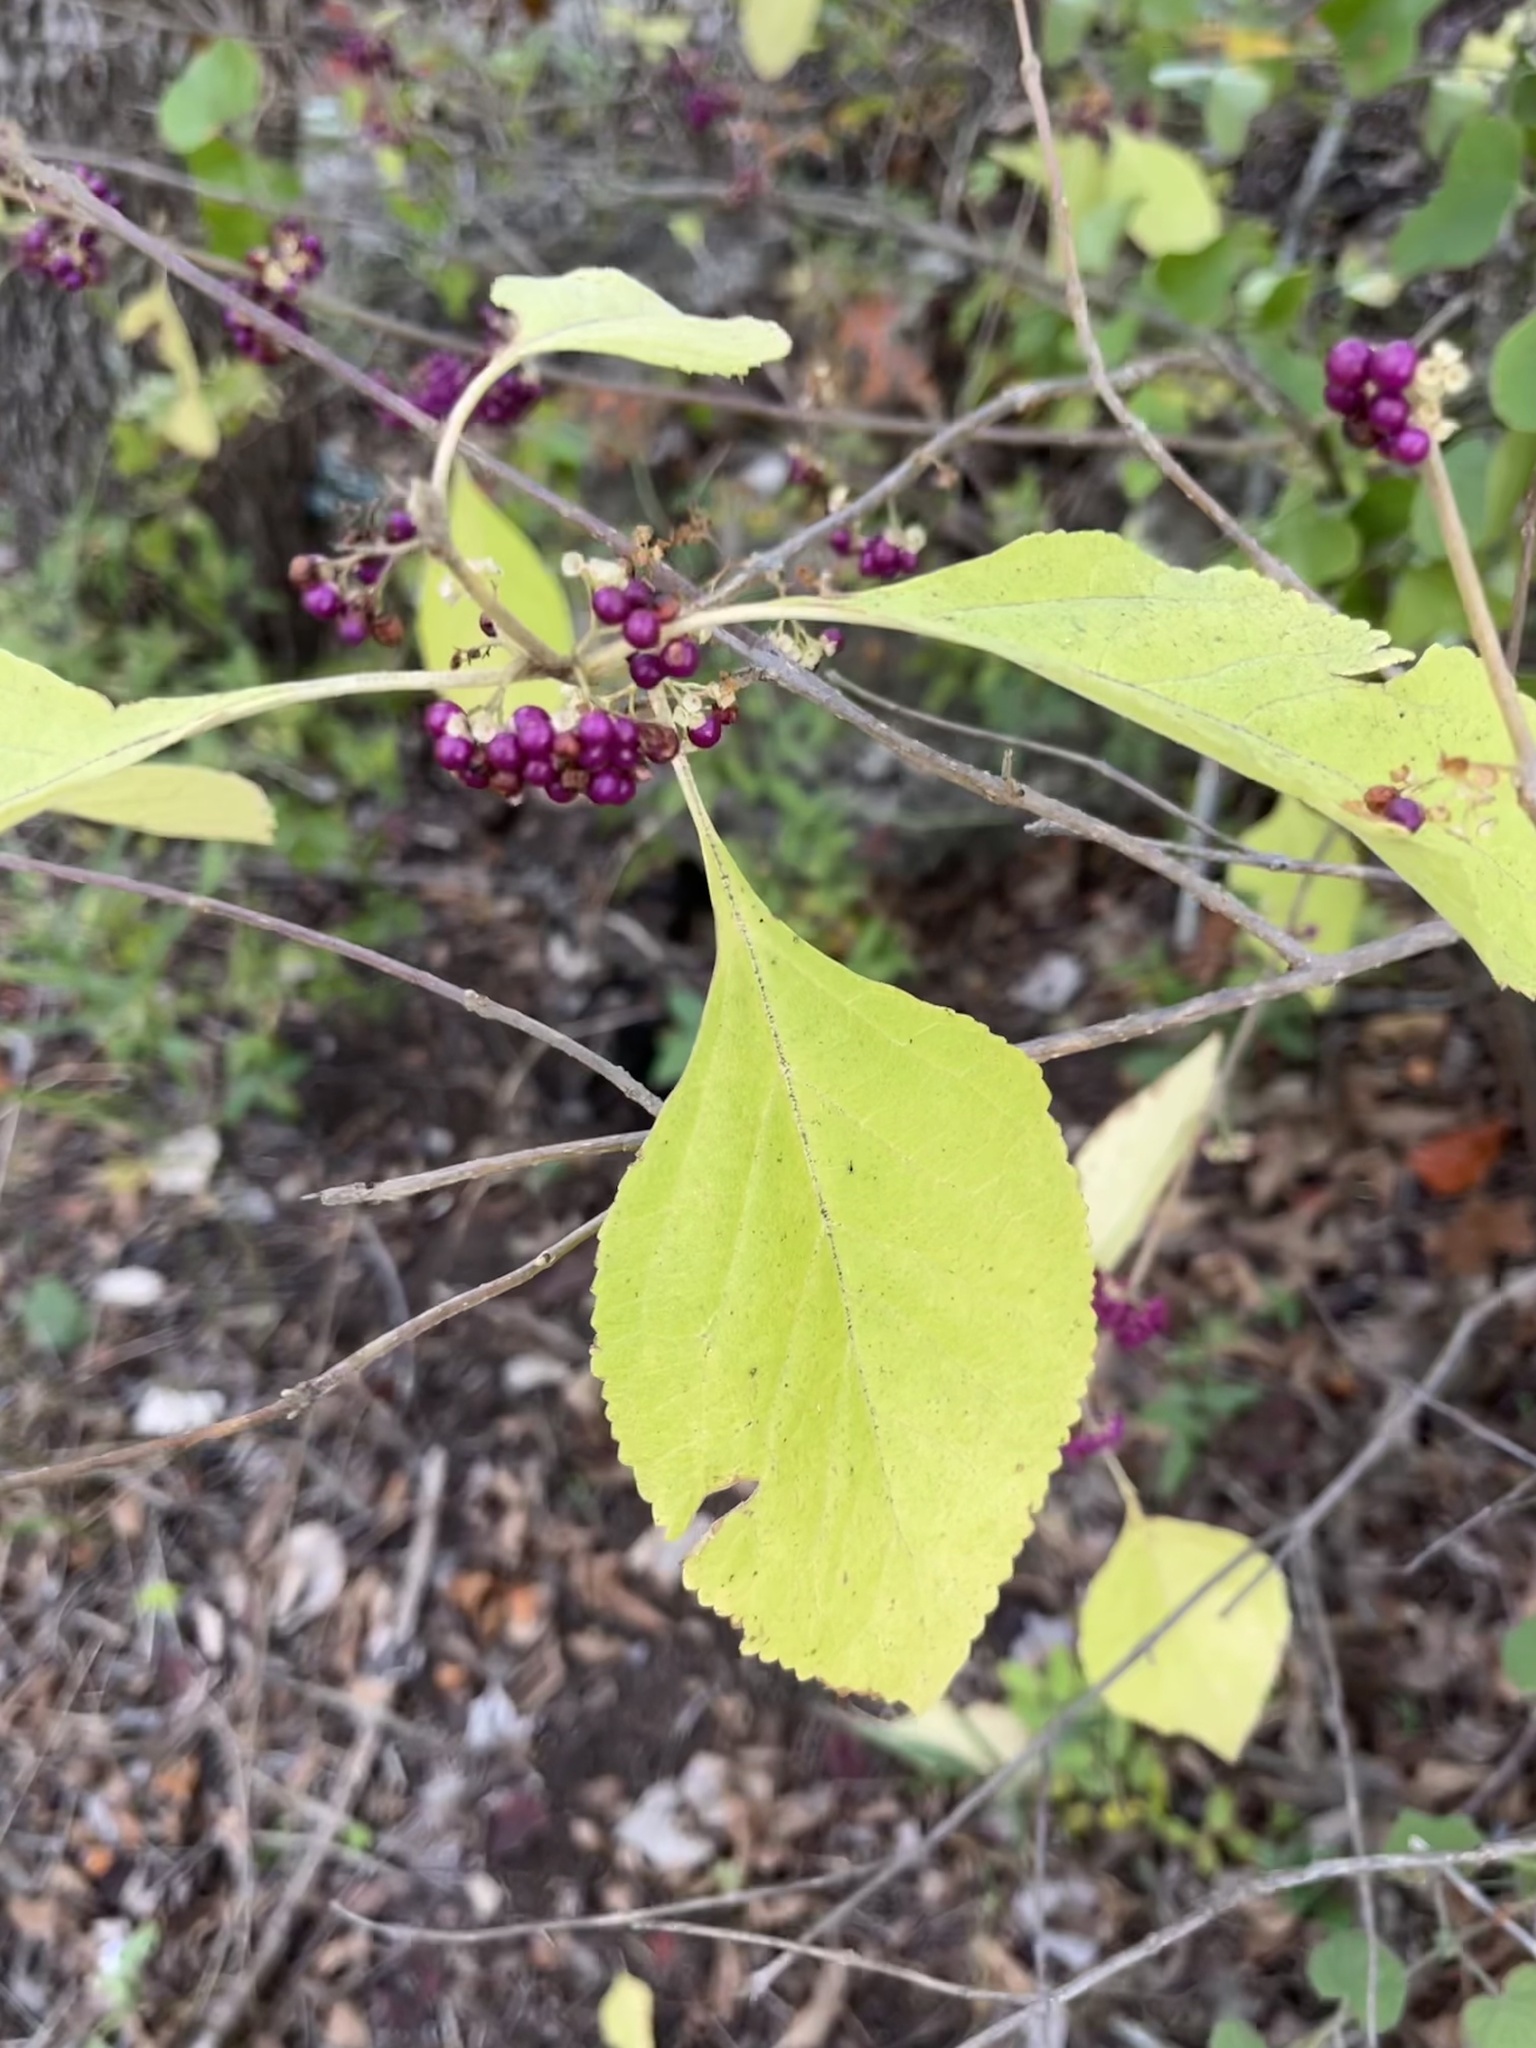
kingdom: Plantae
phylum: Tracheophyta
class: Magnoliopsida
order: Lamiales
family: Lamiaceae
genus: Callicarpa
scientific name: Callicarpa americana
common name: American beautyberry
